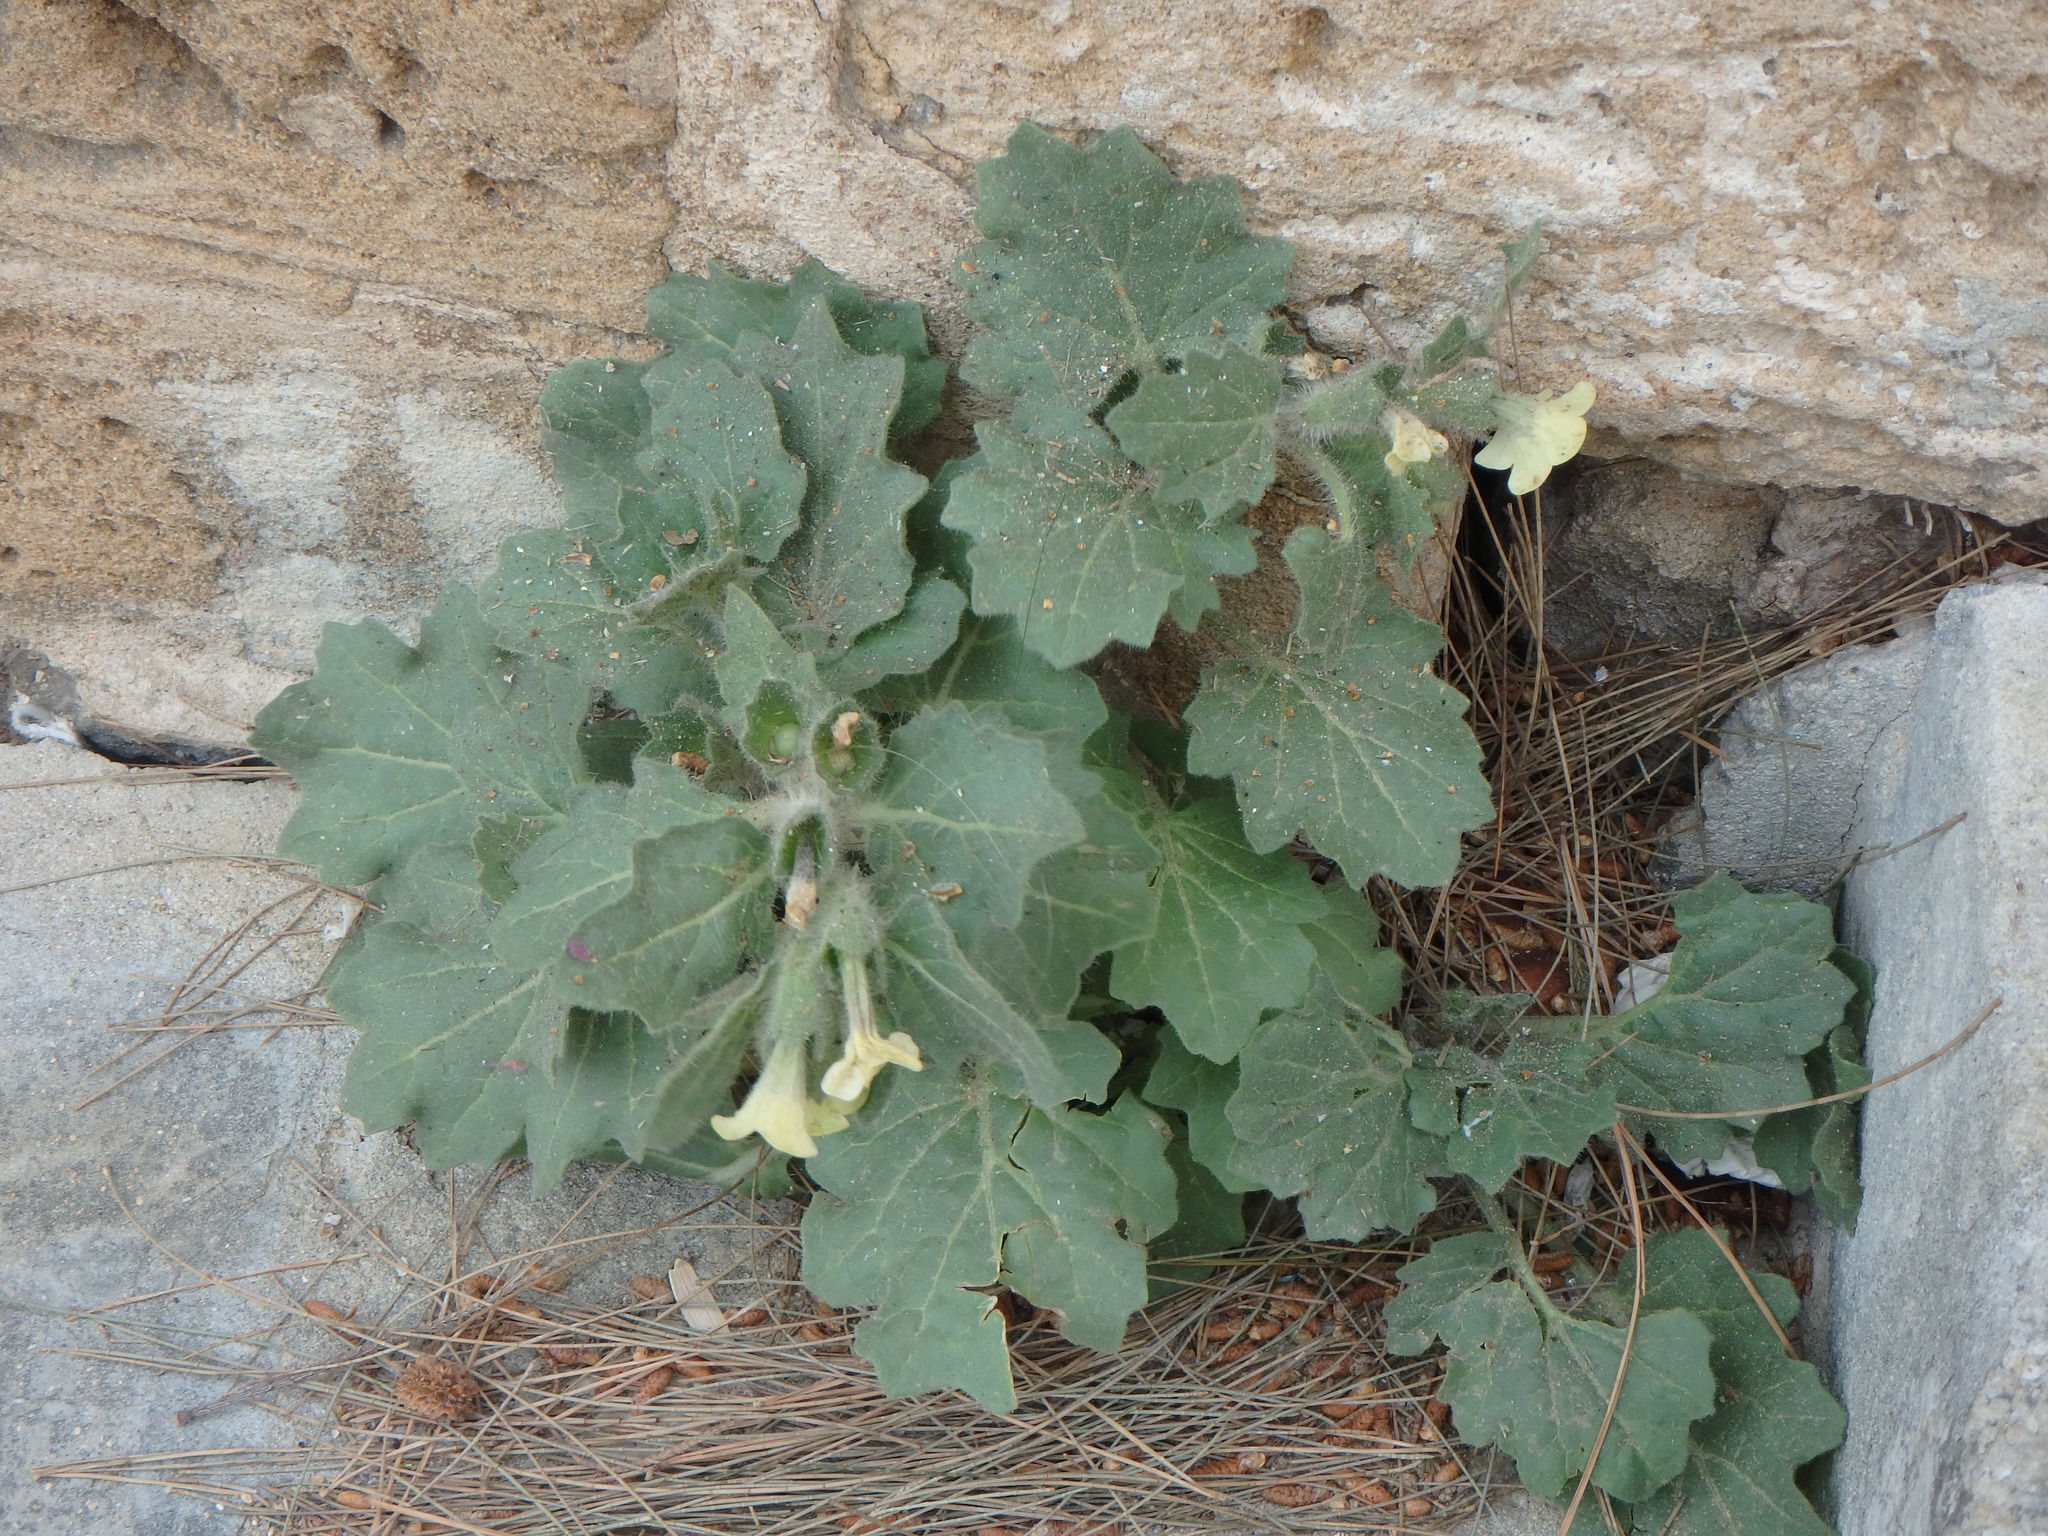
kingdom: Plantae
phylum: Tracheophyta
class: Magnoliopsida
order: Solanales
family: Solanaceae
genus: Hyoscyamus
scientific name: Hyoscyamus albus
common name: White henbane
